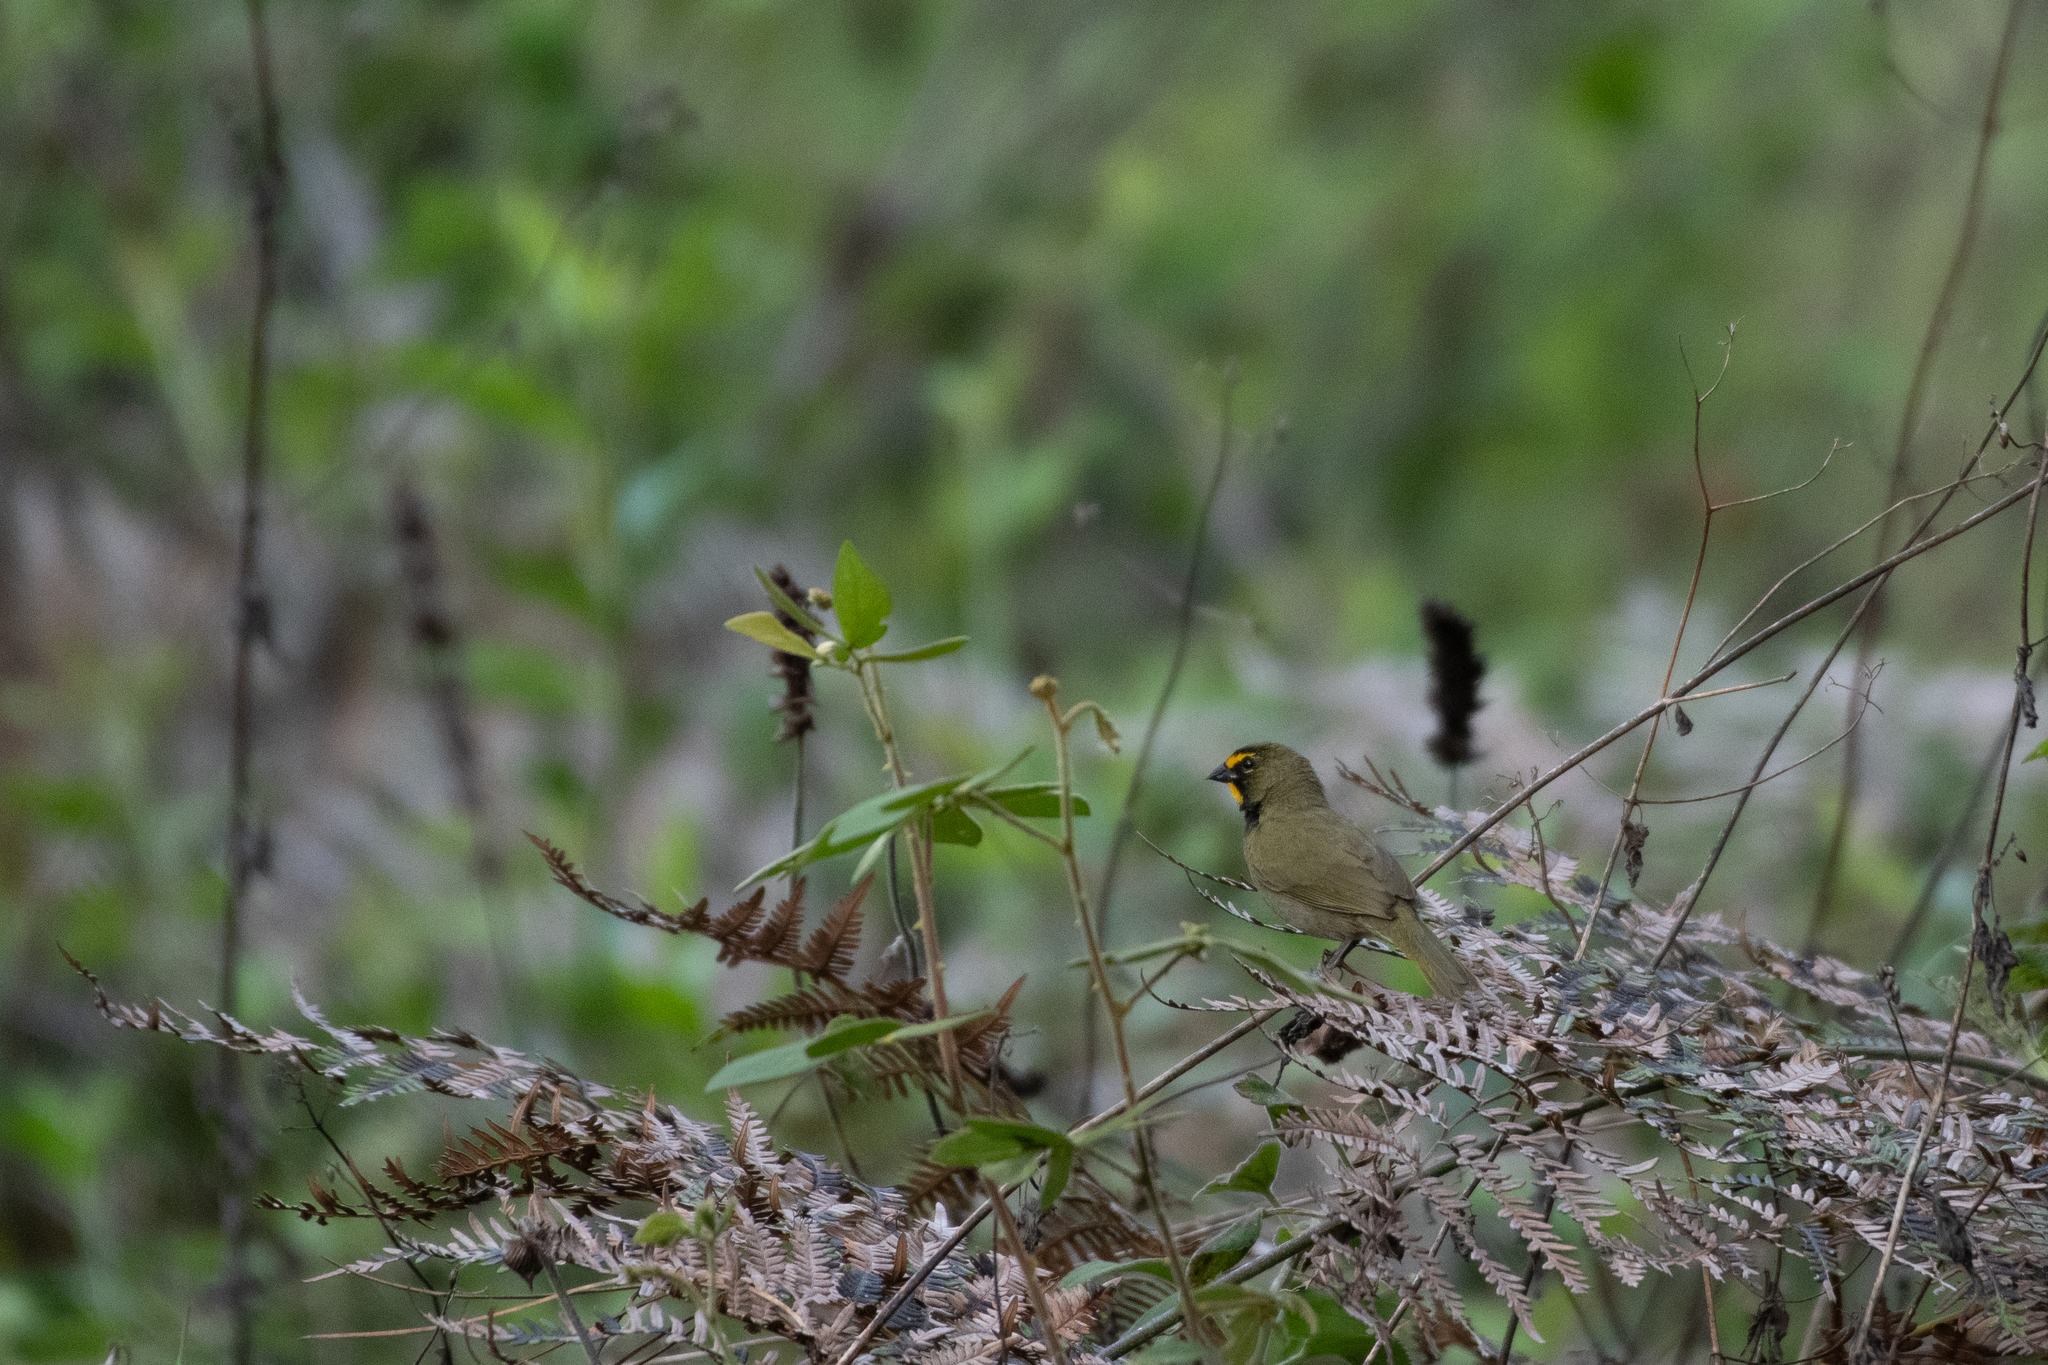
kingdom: Animalia
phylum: Chordata
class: Aves
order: Passeriformes
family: Thraupidae
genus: Tiaris
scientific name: Tiaris olivaceus
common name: Yellow-faced grassquit
